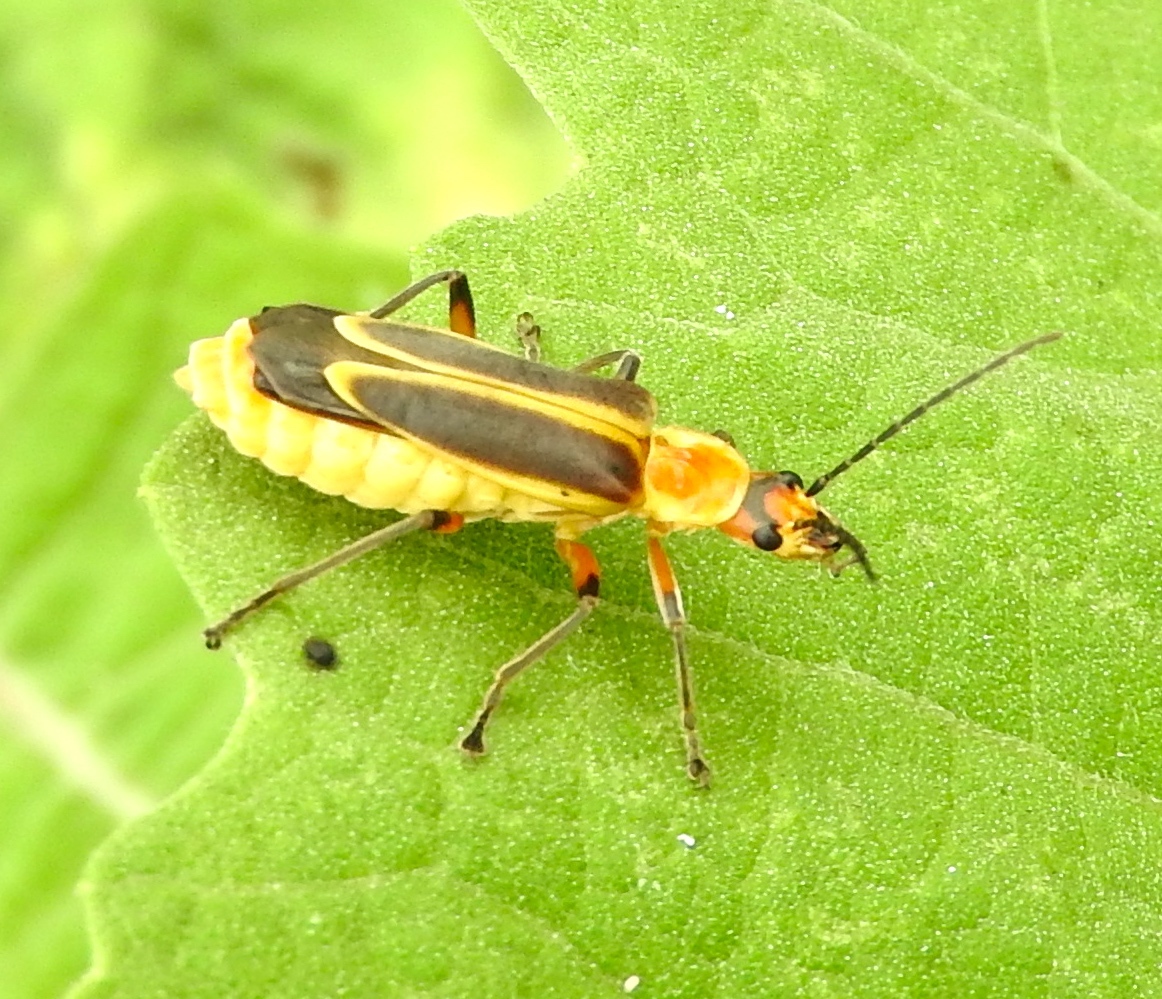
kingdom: Animalia
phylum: Arthropoda
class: Insecta
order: Coleoptera
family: Cantharidae
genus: Chauliognathus
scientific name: Chauliognathus
